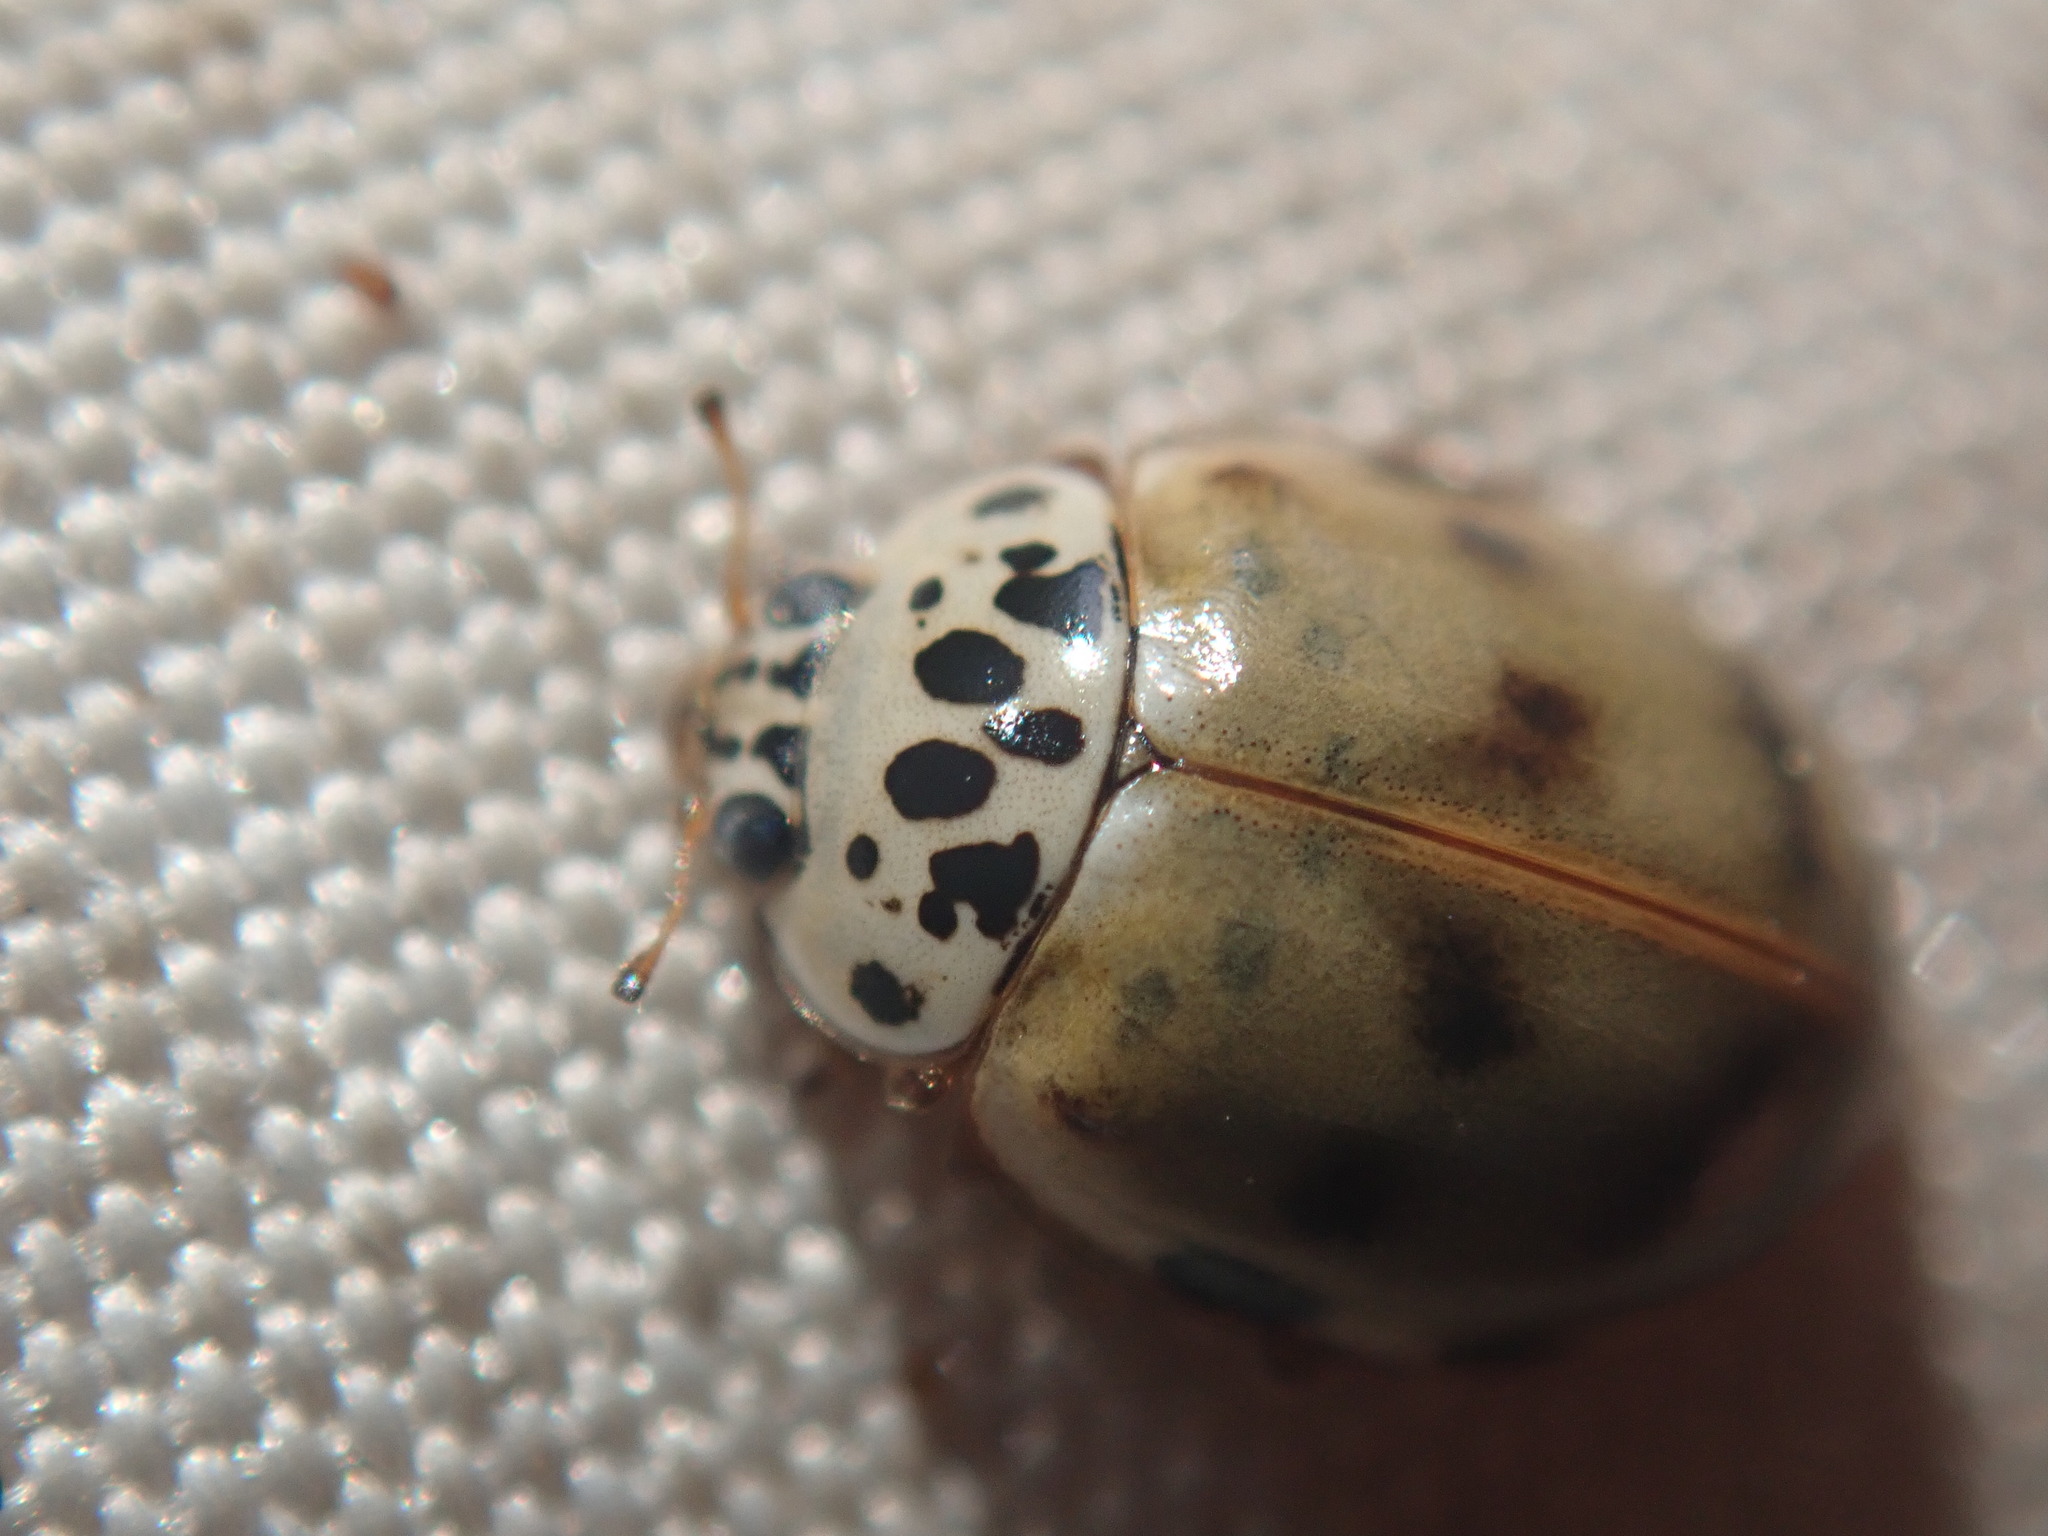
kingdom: Animalia
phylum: Arthropoda
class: Insecta
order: Coleoptera
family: Coccinellidae
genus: Harmonia
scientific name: Harmonia quadripunctata
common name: Cream-streaked ladybird
